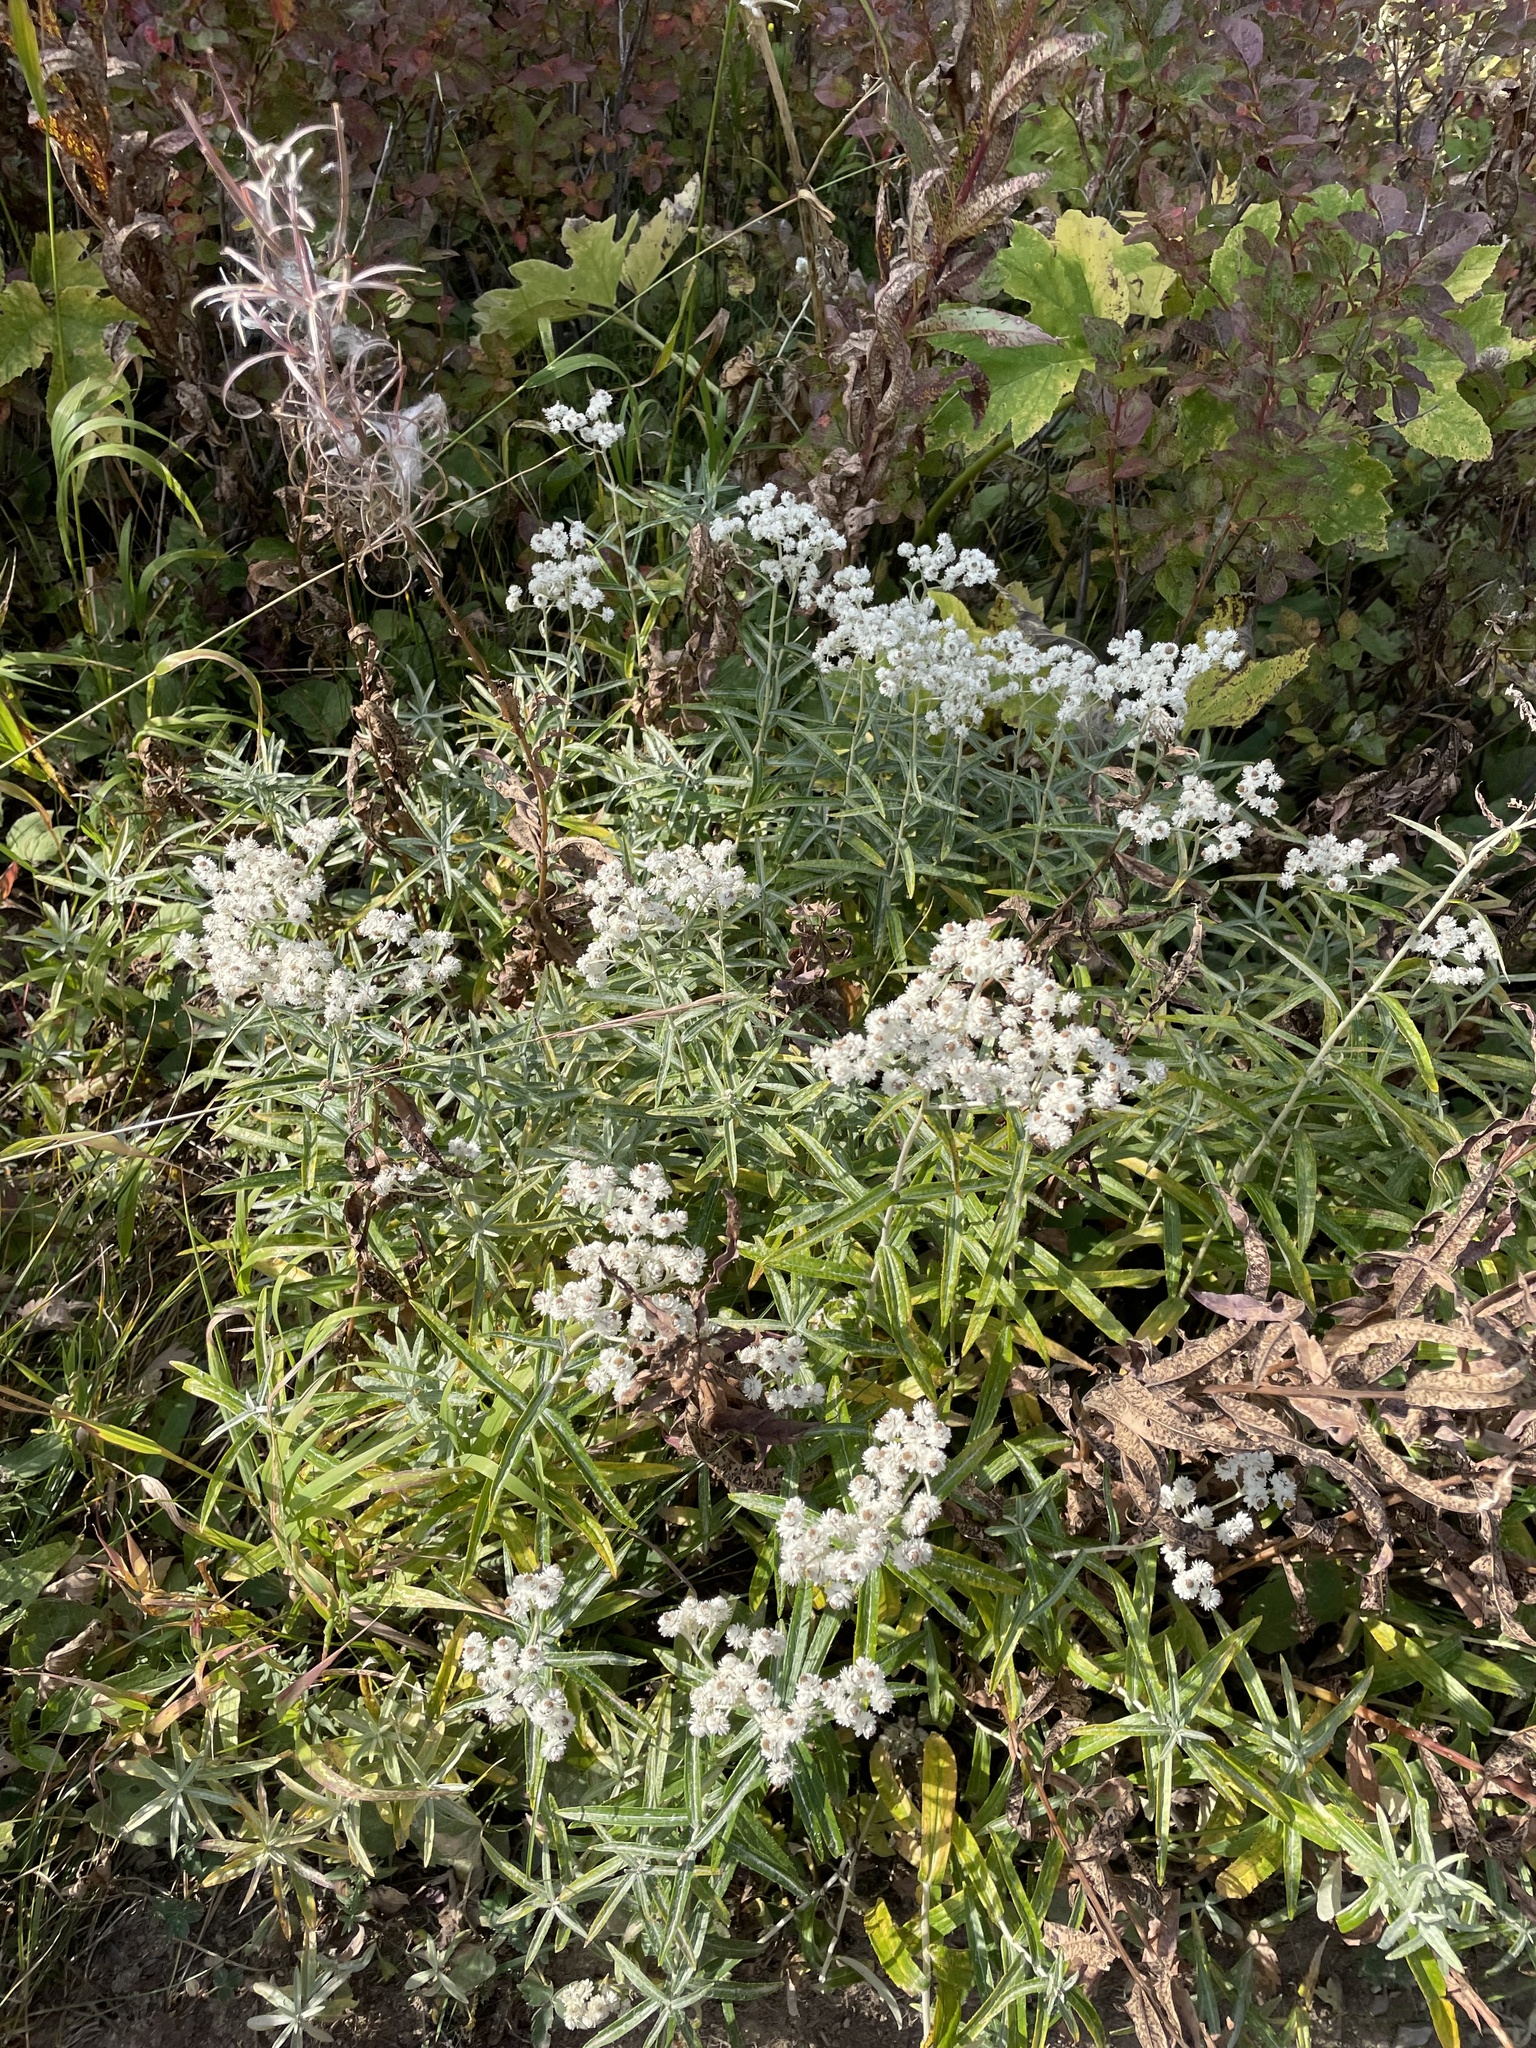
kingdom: Plantae
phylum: Tracheophyta
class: Magnoliopsida
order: Asterales
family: Asteraceae
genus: Anaphalis
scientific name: Anaphalis margaritacea
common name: Pearly everlasting
